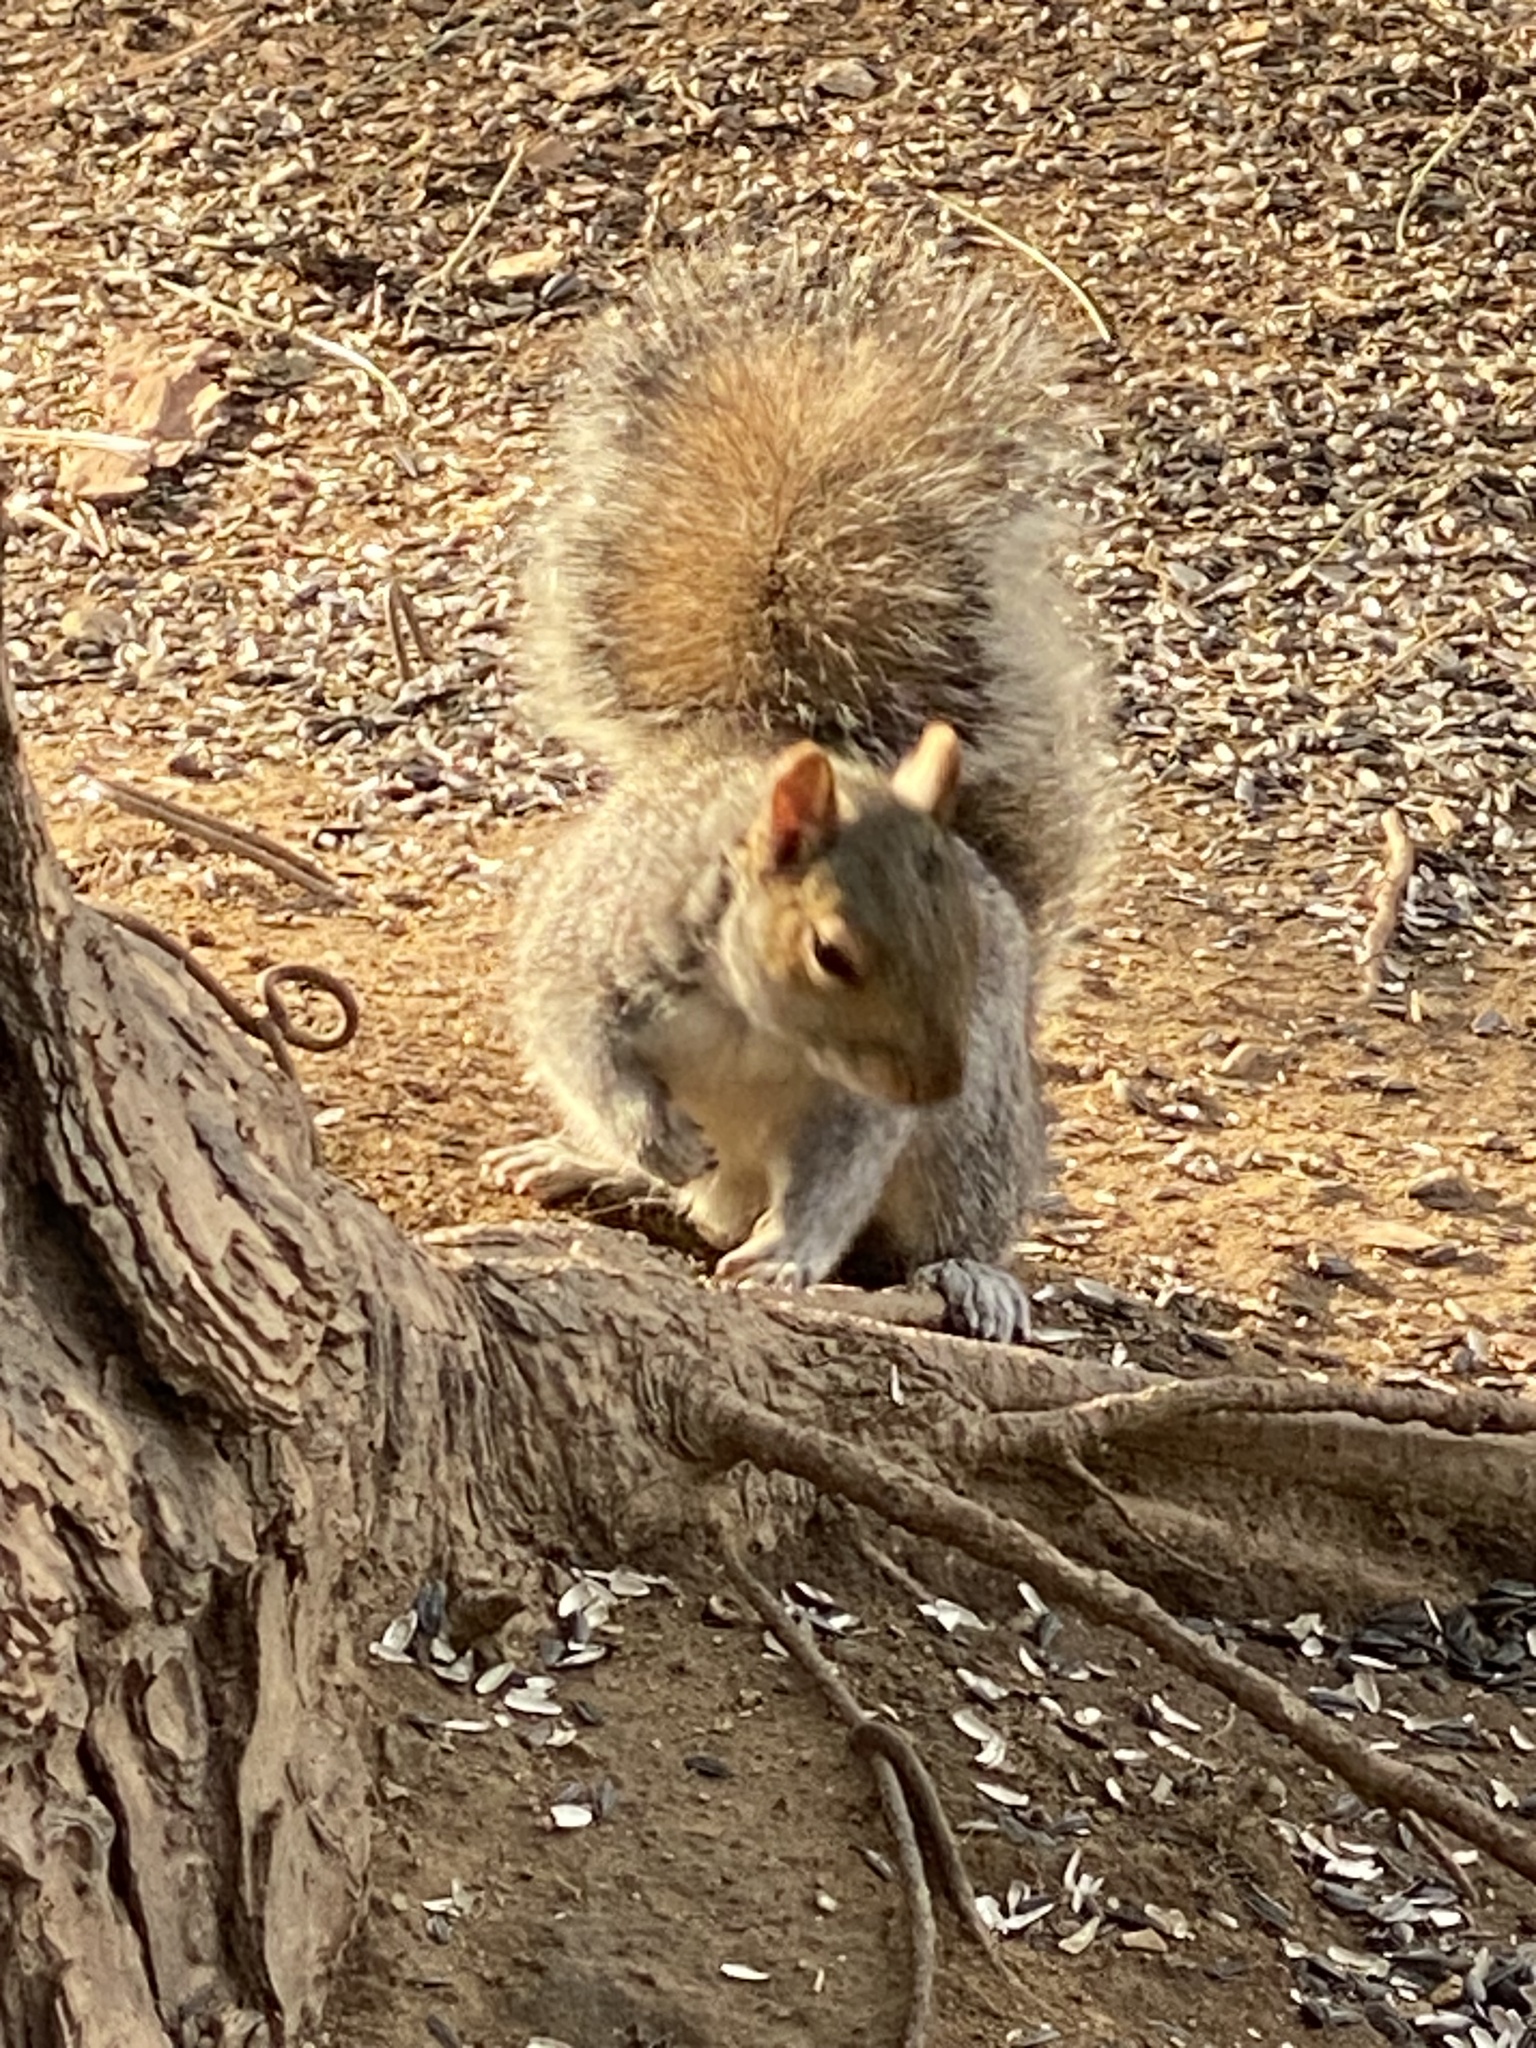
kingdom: Animalia
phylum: Chordata
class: Mammalia
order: Rodentia
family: Sciuridae
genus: Sciurus
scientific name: Sciurus carolinensis
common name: Eastern gray squirrel
